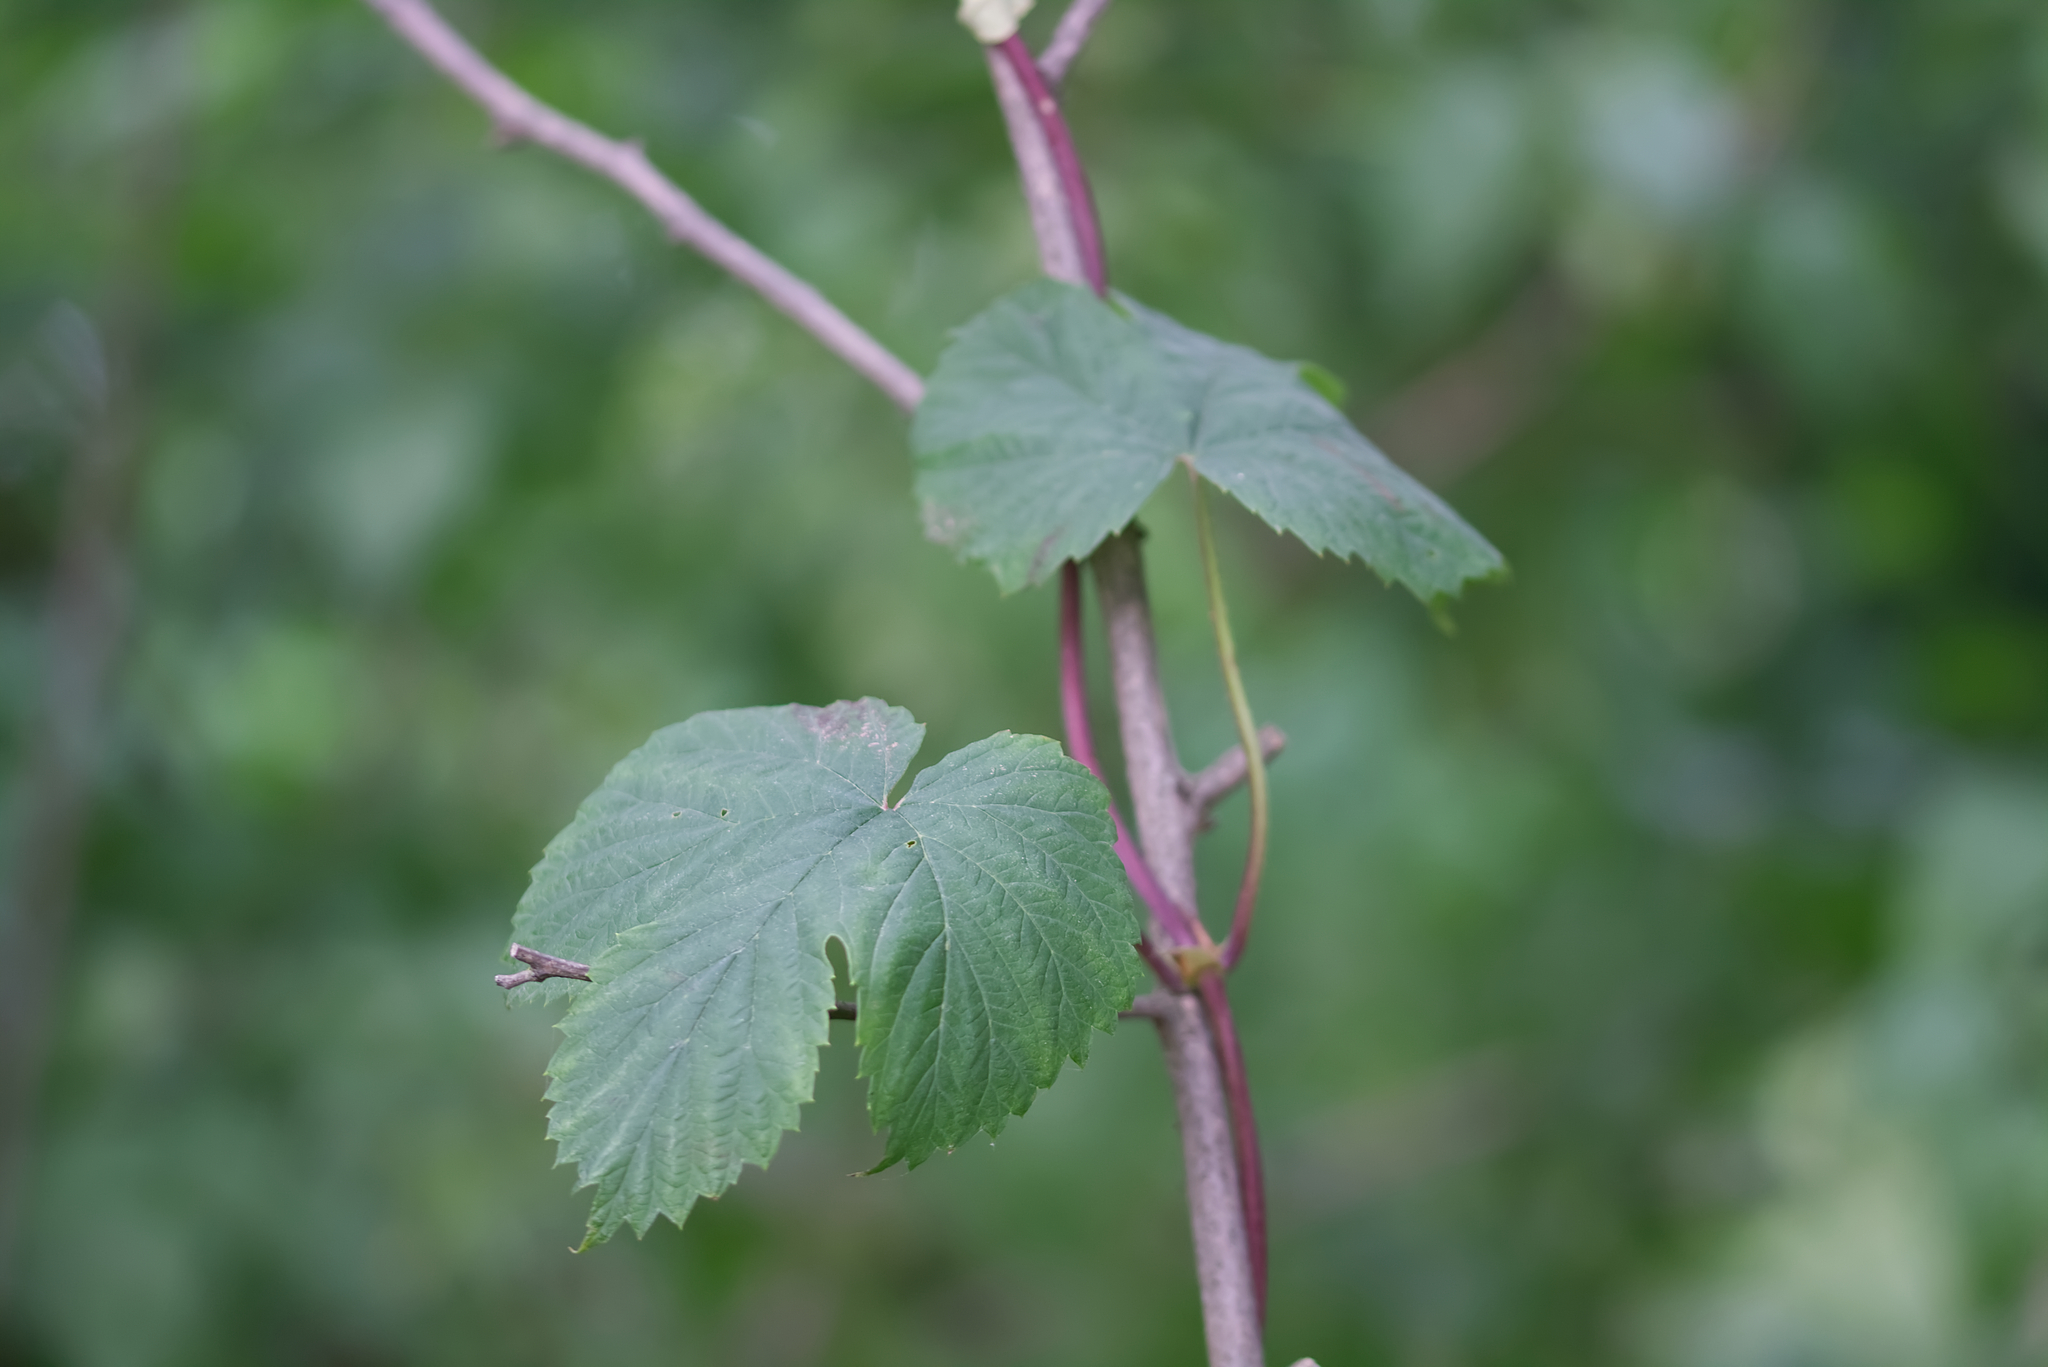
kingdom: Plantae
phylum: Tracheophyta
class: Magnoliopsida
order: Rosales
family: Cannabaceae
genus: Humulus
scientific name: Humulus lupulus
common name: Hop
